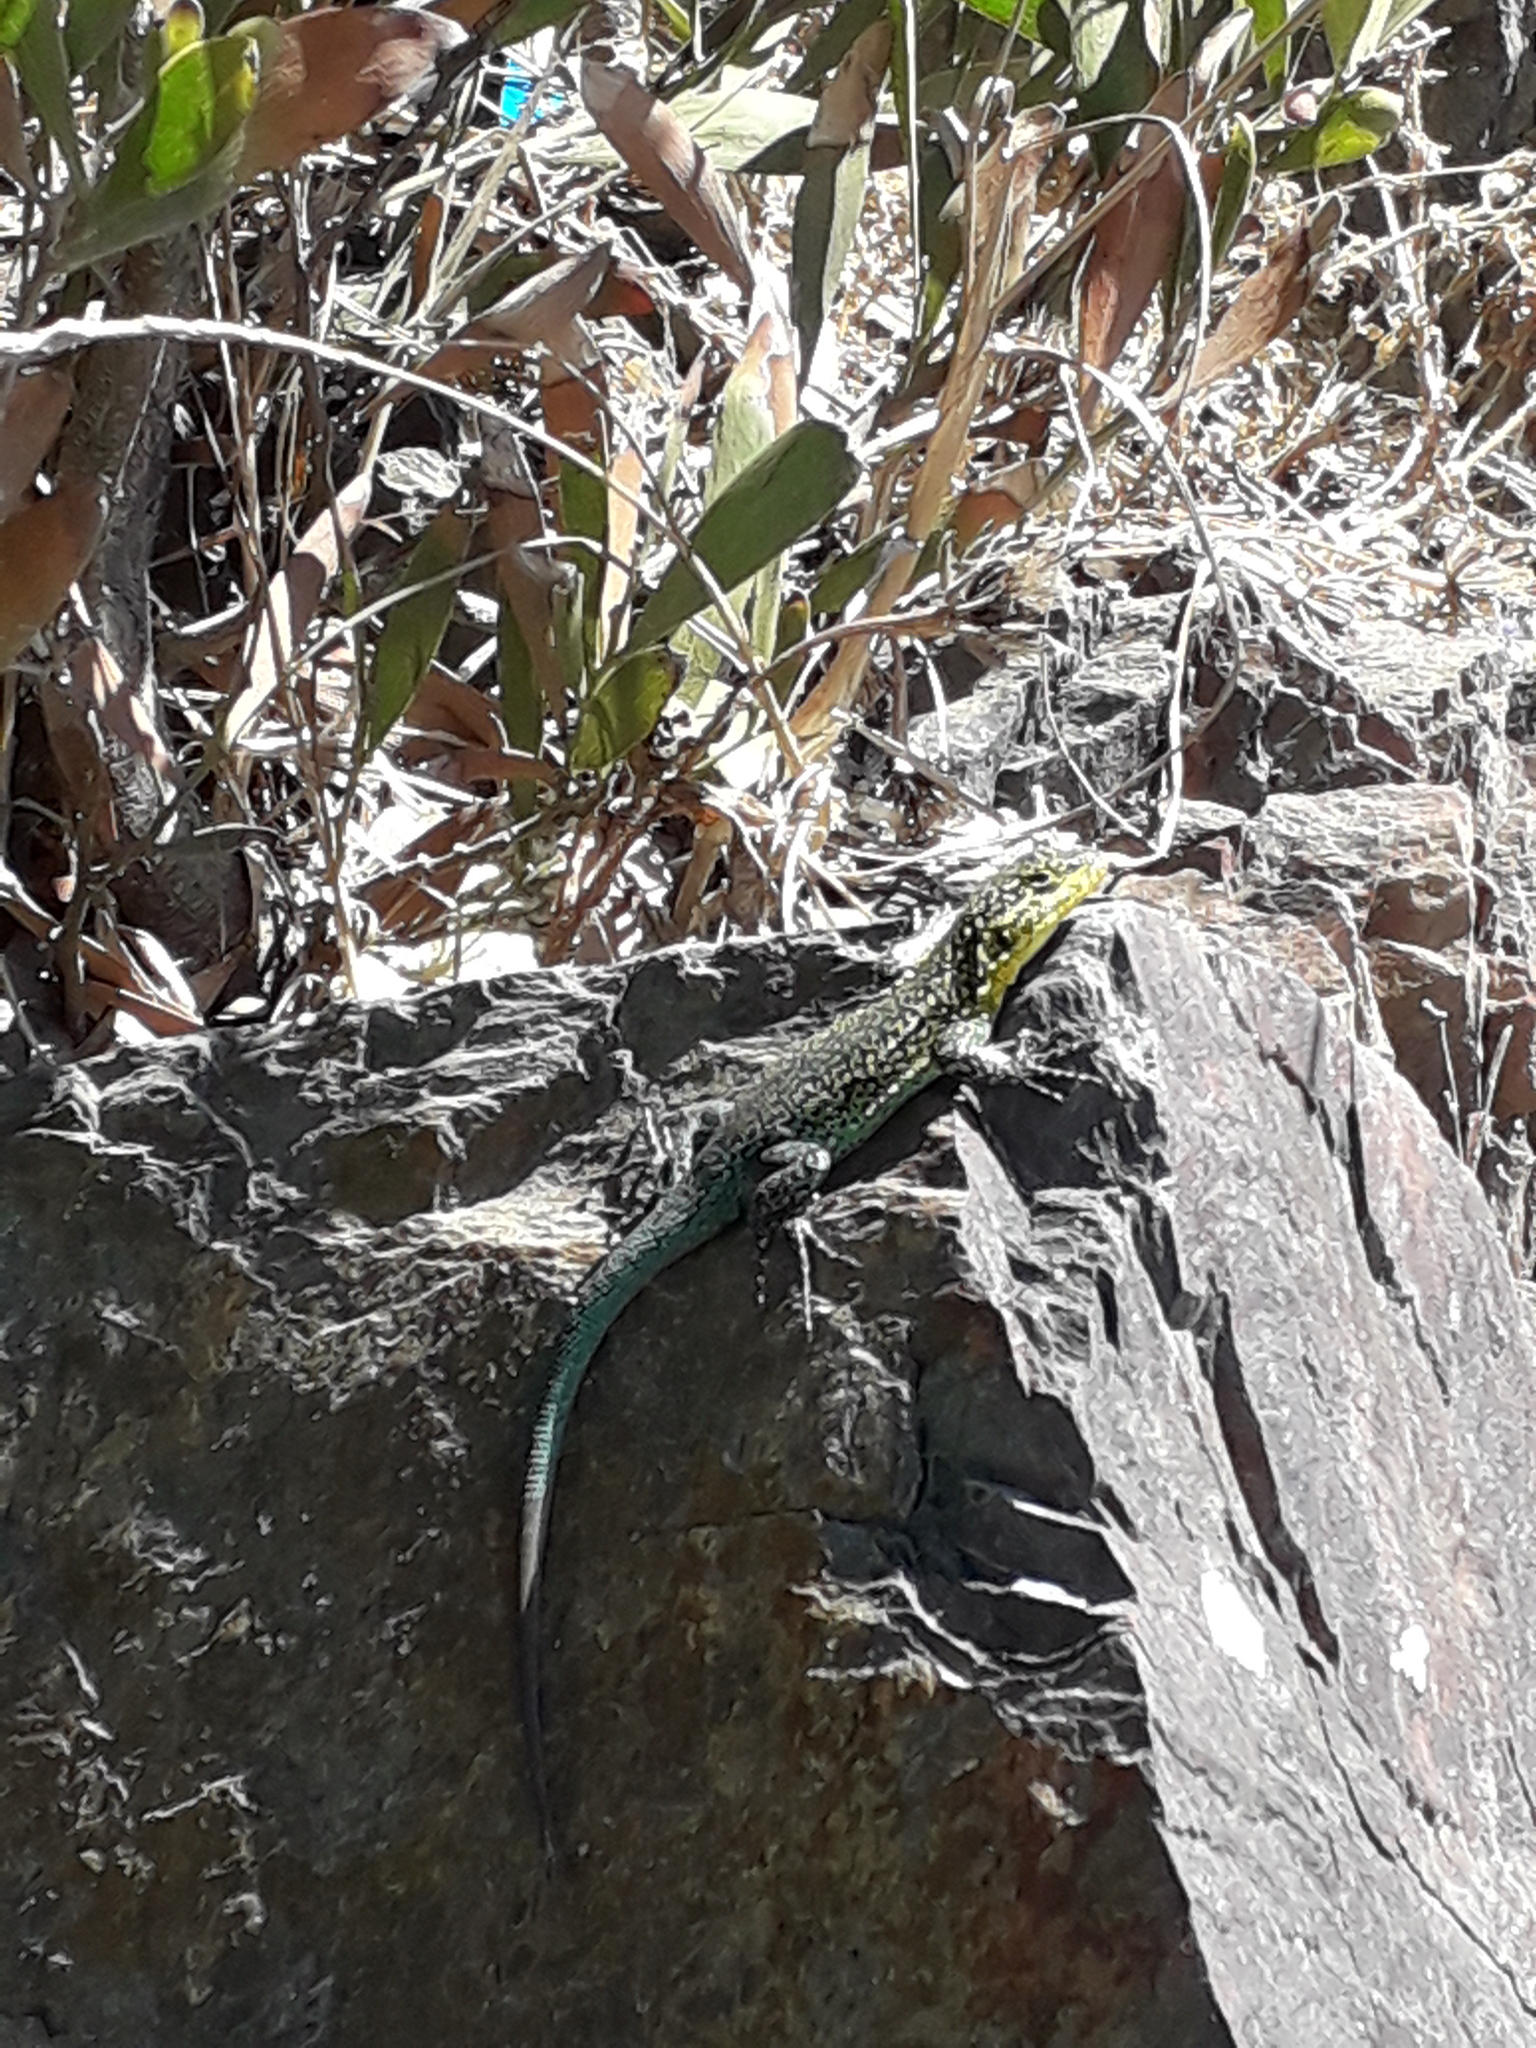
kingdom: Animalia
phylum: Chordata
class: Squamata
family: Liolaemidae
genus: Liolaemus
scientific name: Liolaemus tenuis
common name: Thin tree iguana
